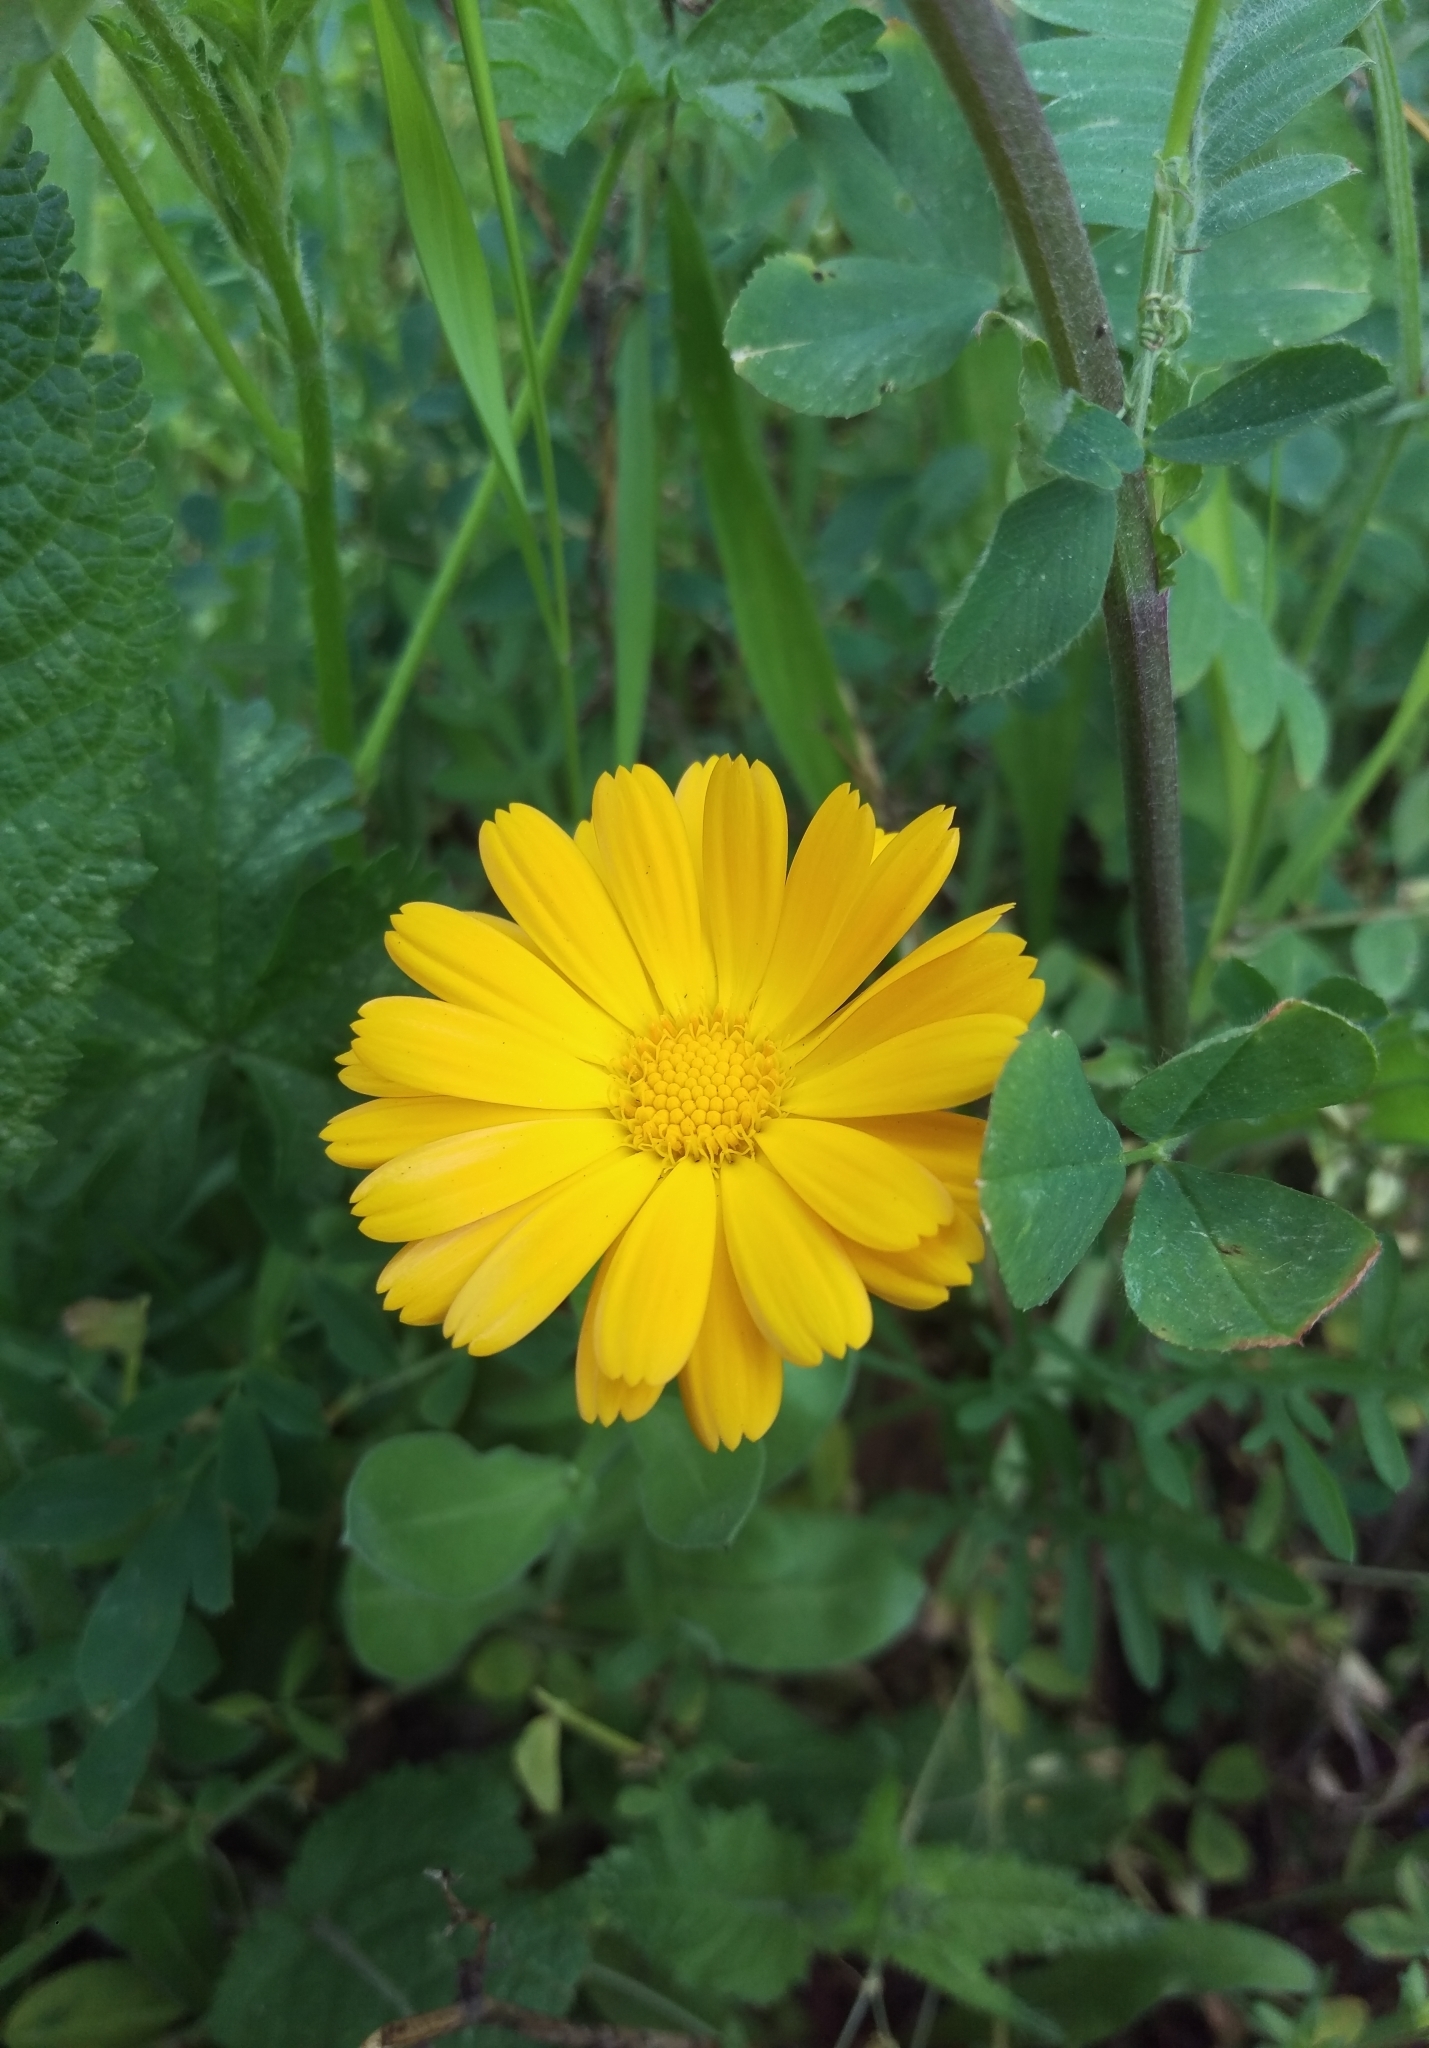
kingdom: Plantae
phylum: Tracheophyta
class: Magnoliopsida
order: Asterales
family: Asteraceae
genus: Calendula
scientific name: Calendula officinalis
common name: Pot marigold
